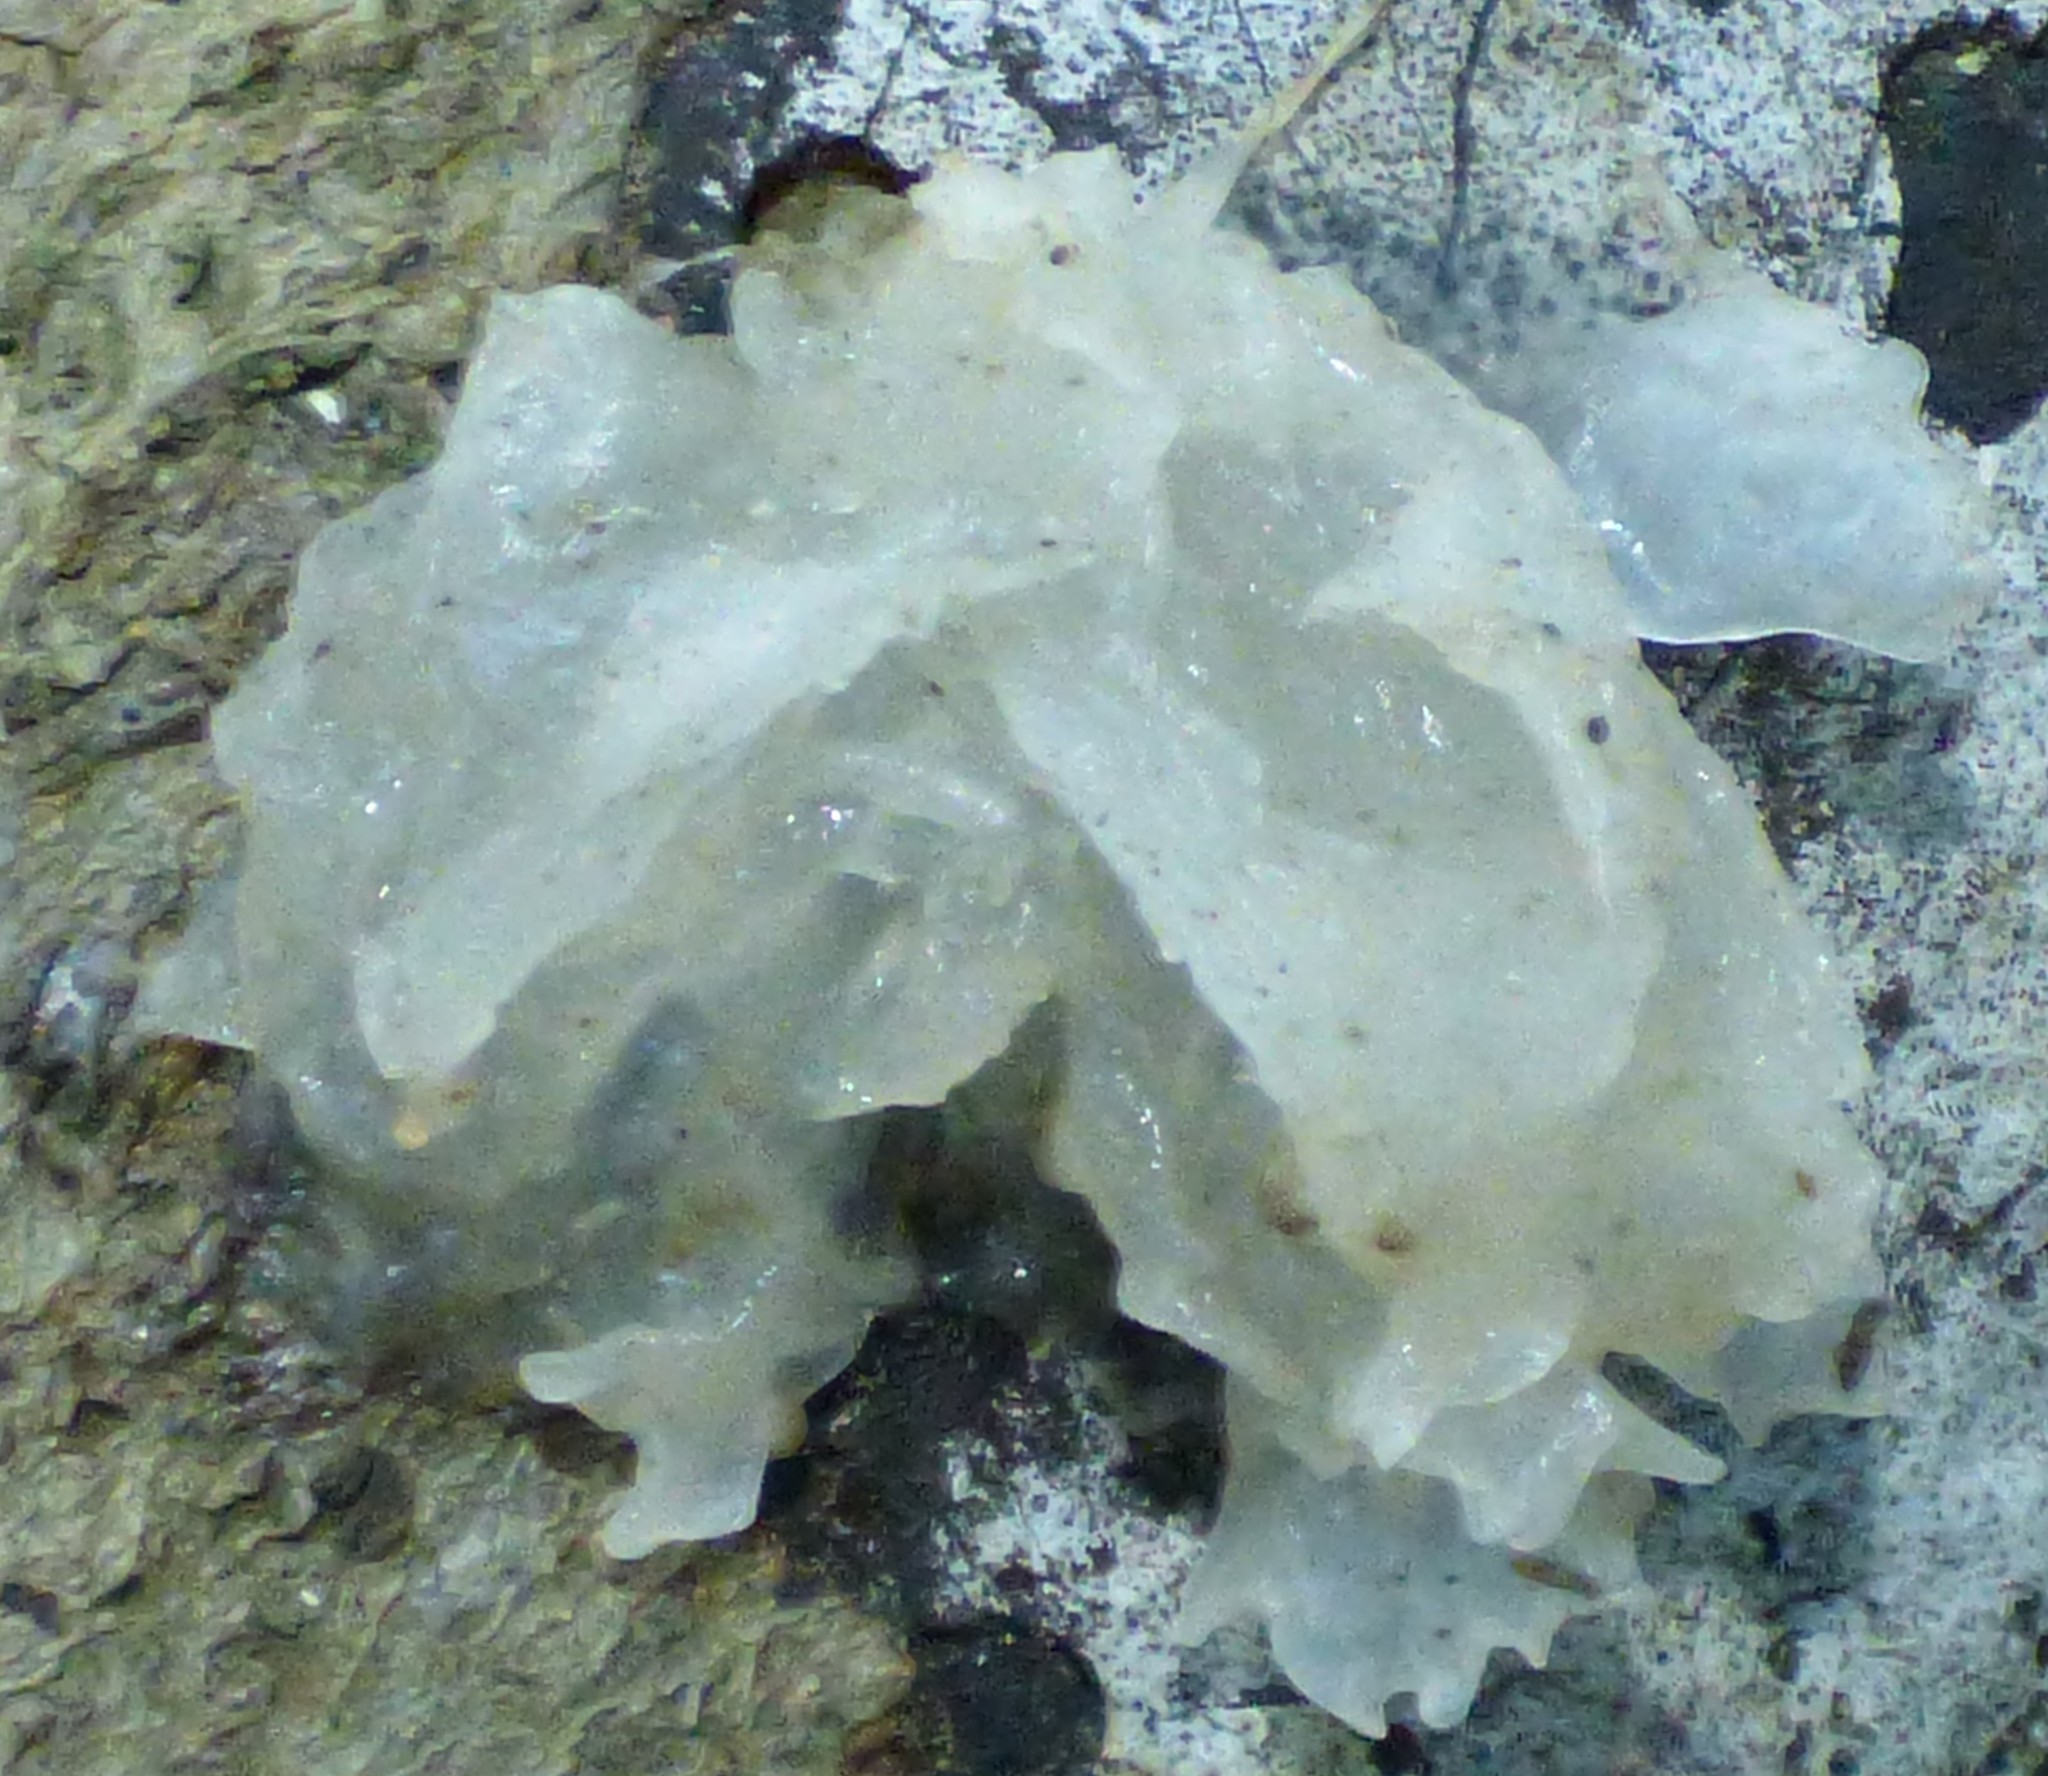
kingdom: Fungi
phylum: Basidiomycota
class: Tremellomycetes
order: Tremellales
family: Tremellaceae
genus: Tremella
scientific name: Tremella fuciformis
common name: Snow fungus
